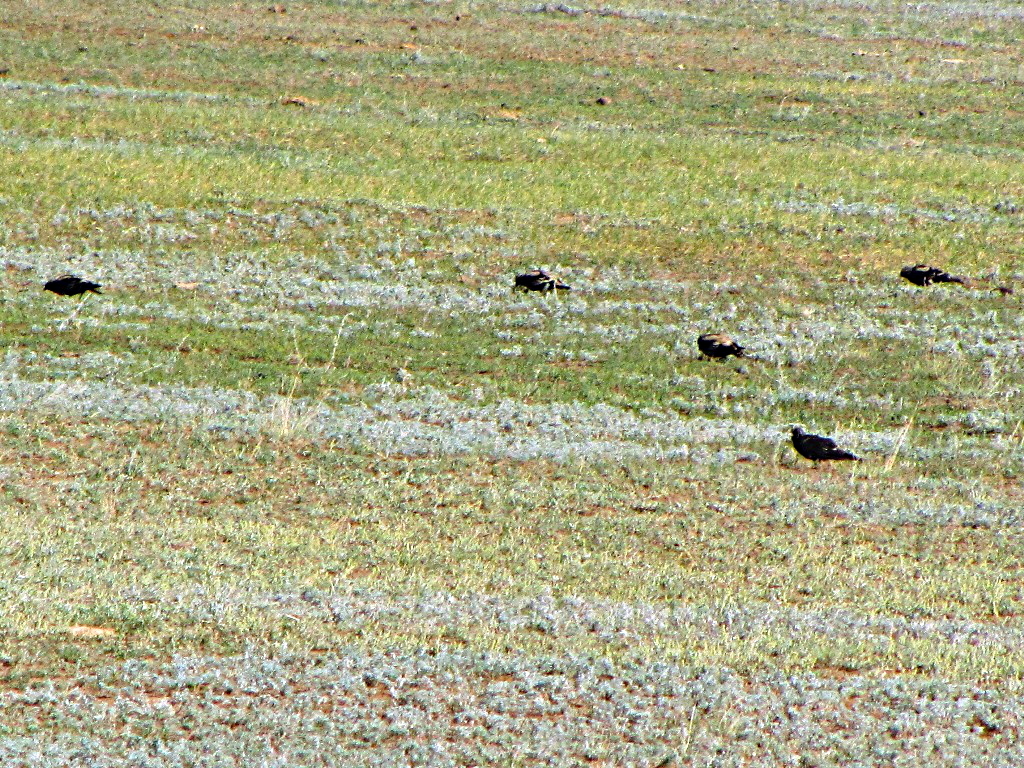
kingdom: Animalia
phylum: Chordata
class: Aves
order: Passeriformes
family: Alaudidae
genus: Melanocorypha
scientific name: Melanocorypha yeltoniensis
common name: Black lark
